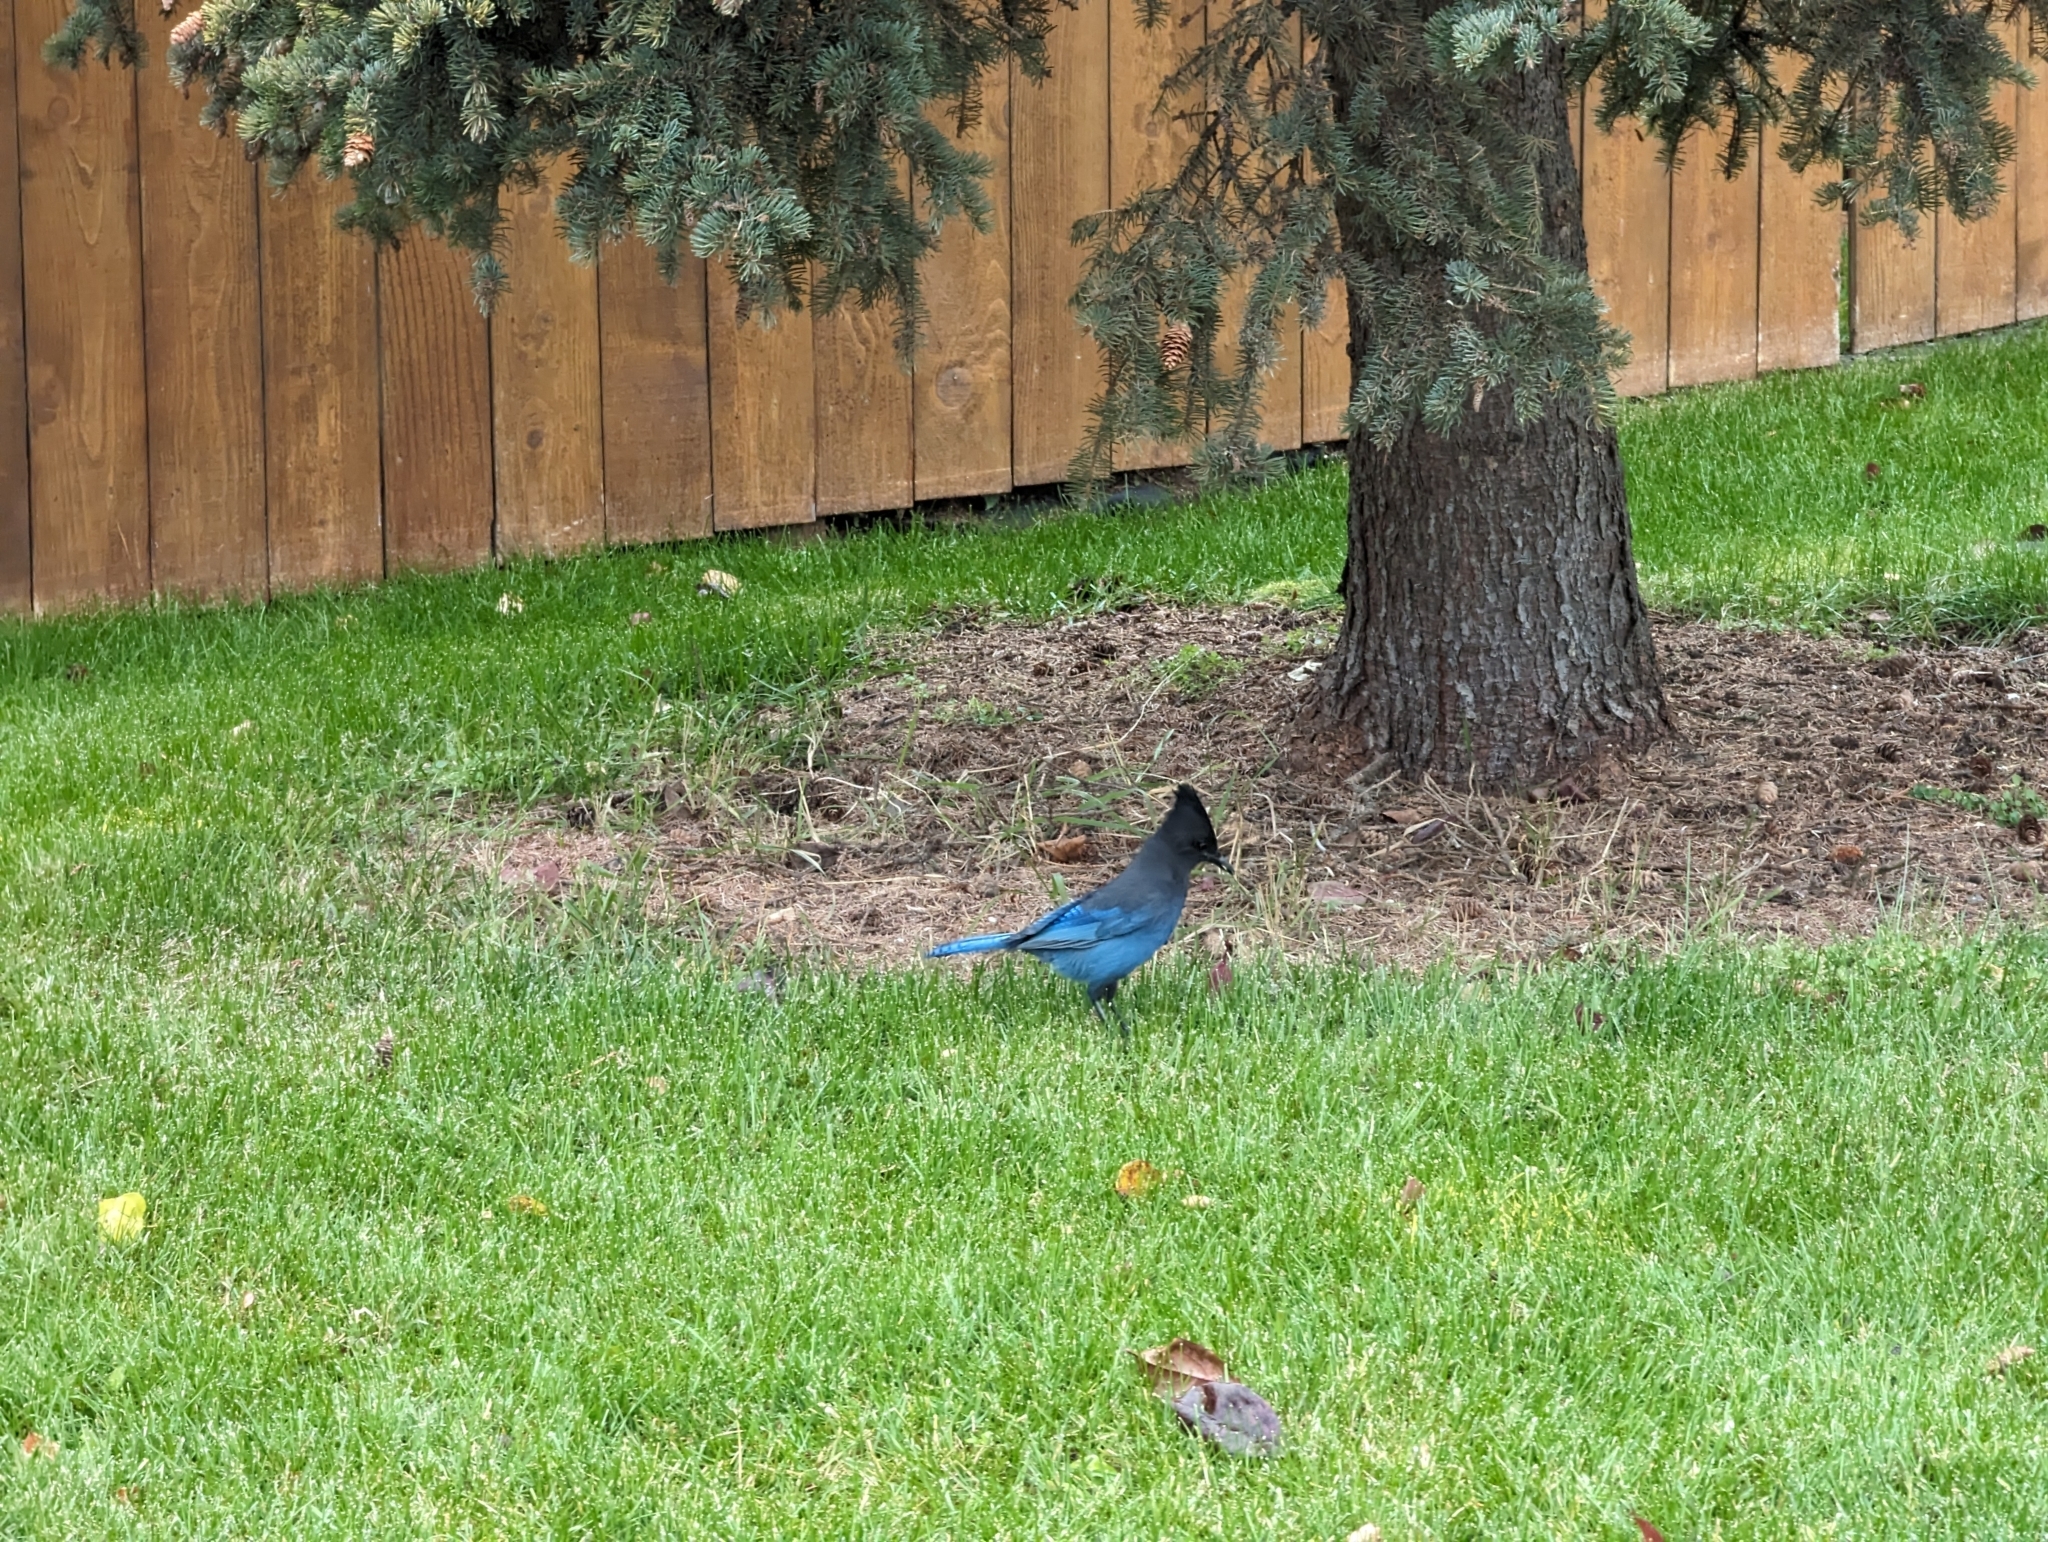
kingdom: Animalia
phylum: Chordata
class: Aves
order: Passeriformes
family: Corvidae
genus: Cyanocitta
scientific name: Cyanocitta stelleri
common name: Steller's jay
